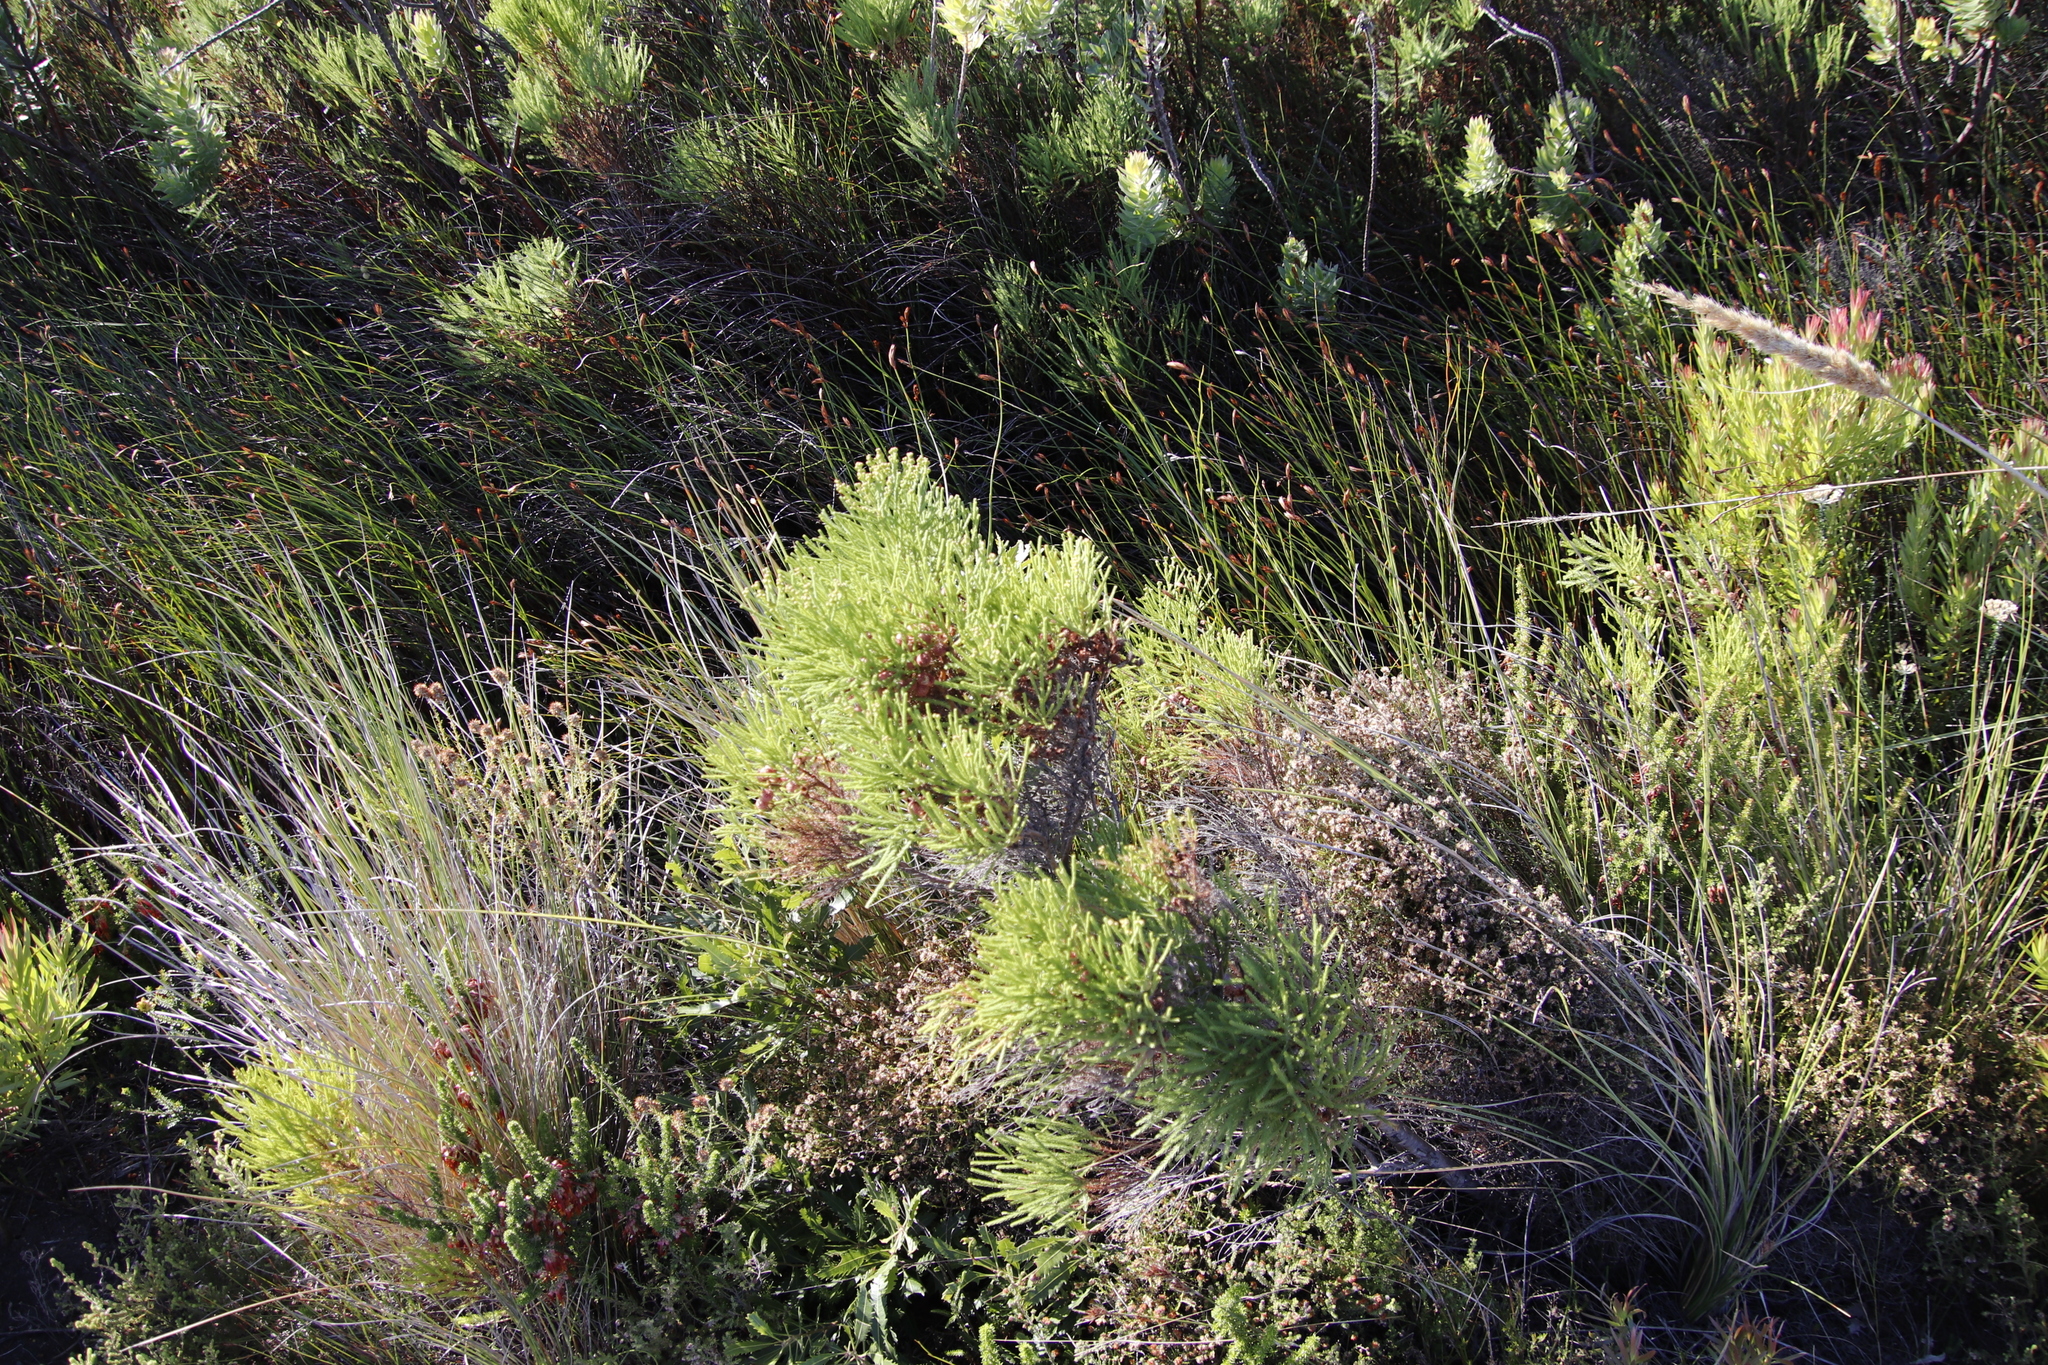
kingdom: Plantae
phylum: Tracheophyta
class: Magnoliopsida
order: Bruniales
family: Bruniaceae
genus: Berzelia
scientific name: Berzelia lanuginosa
